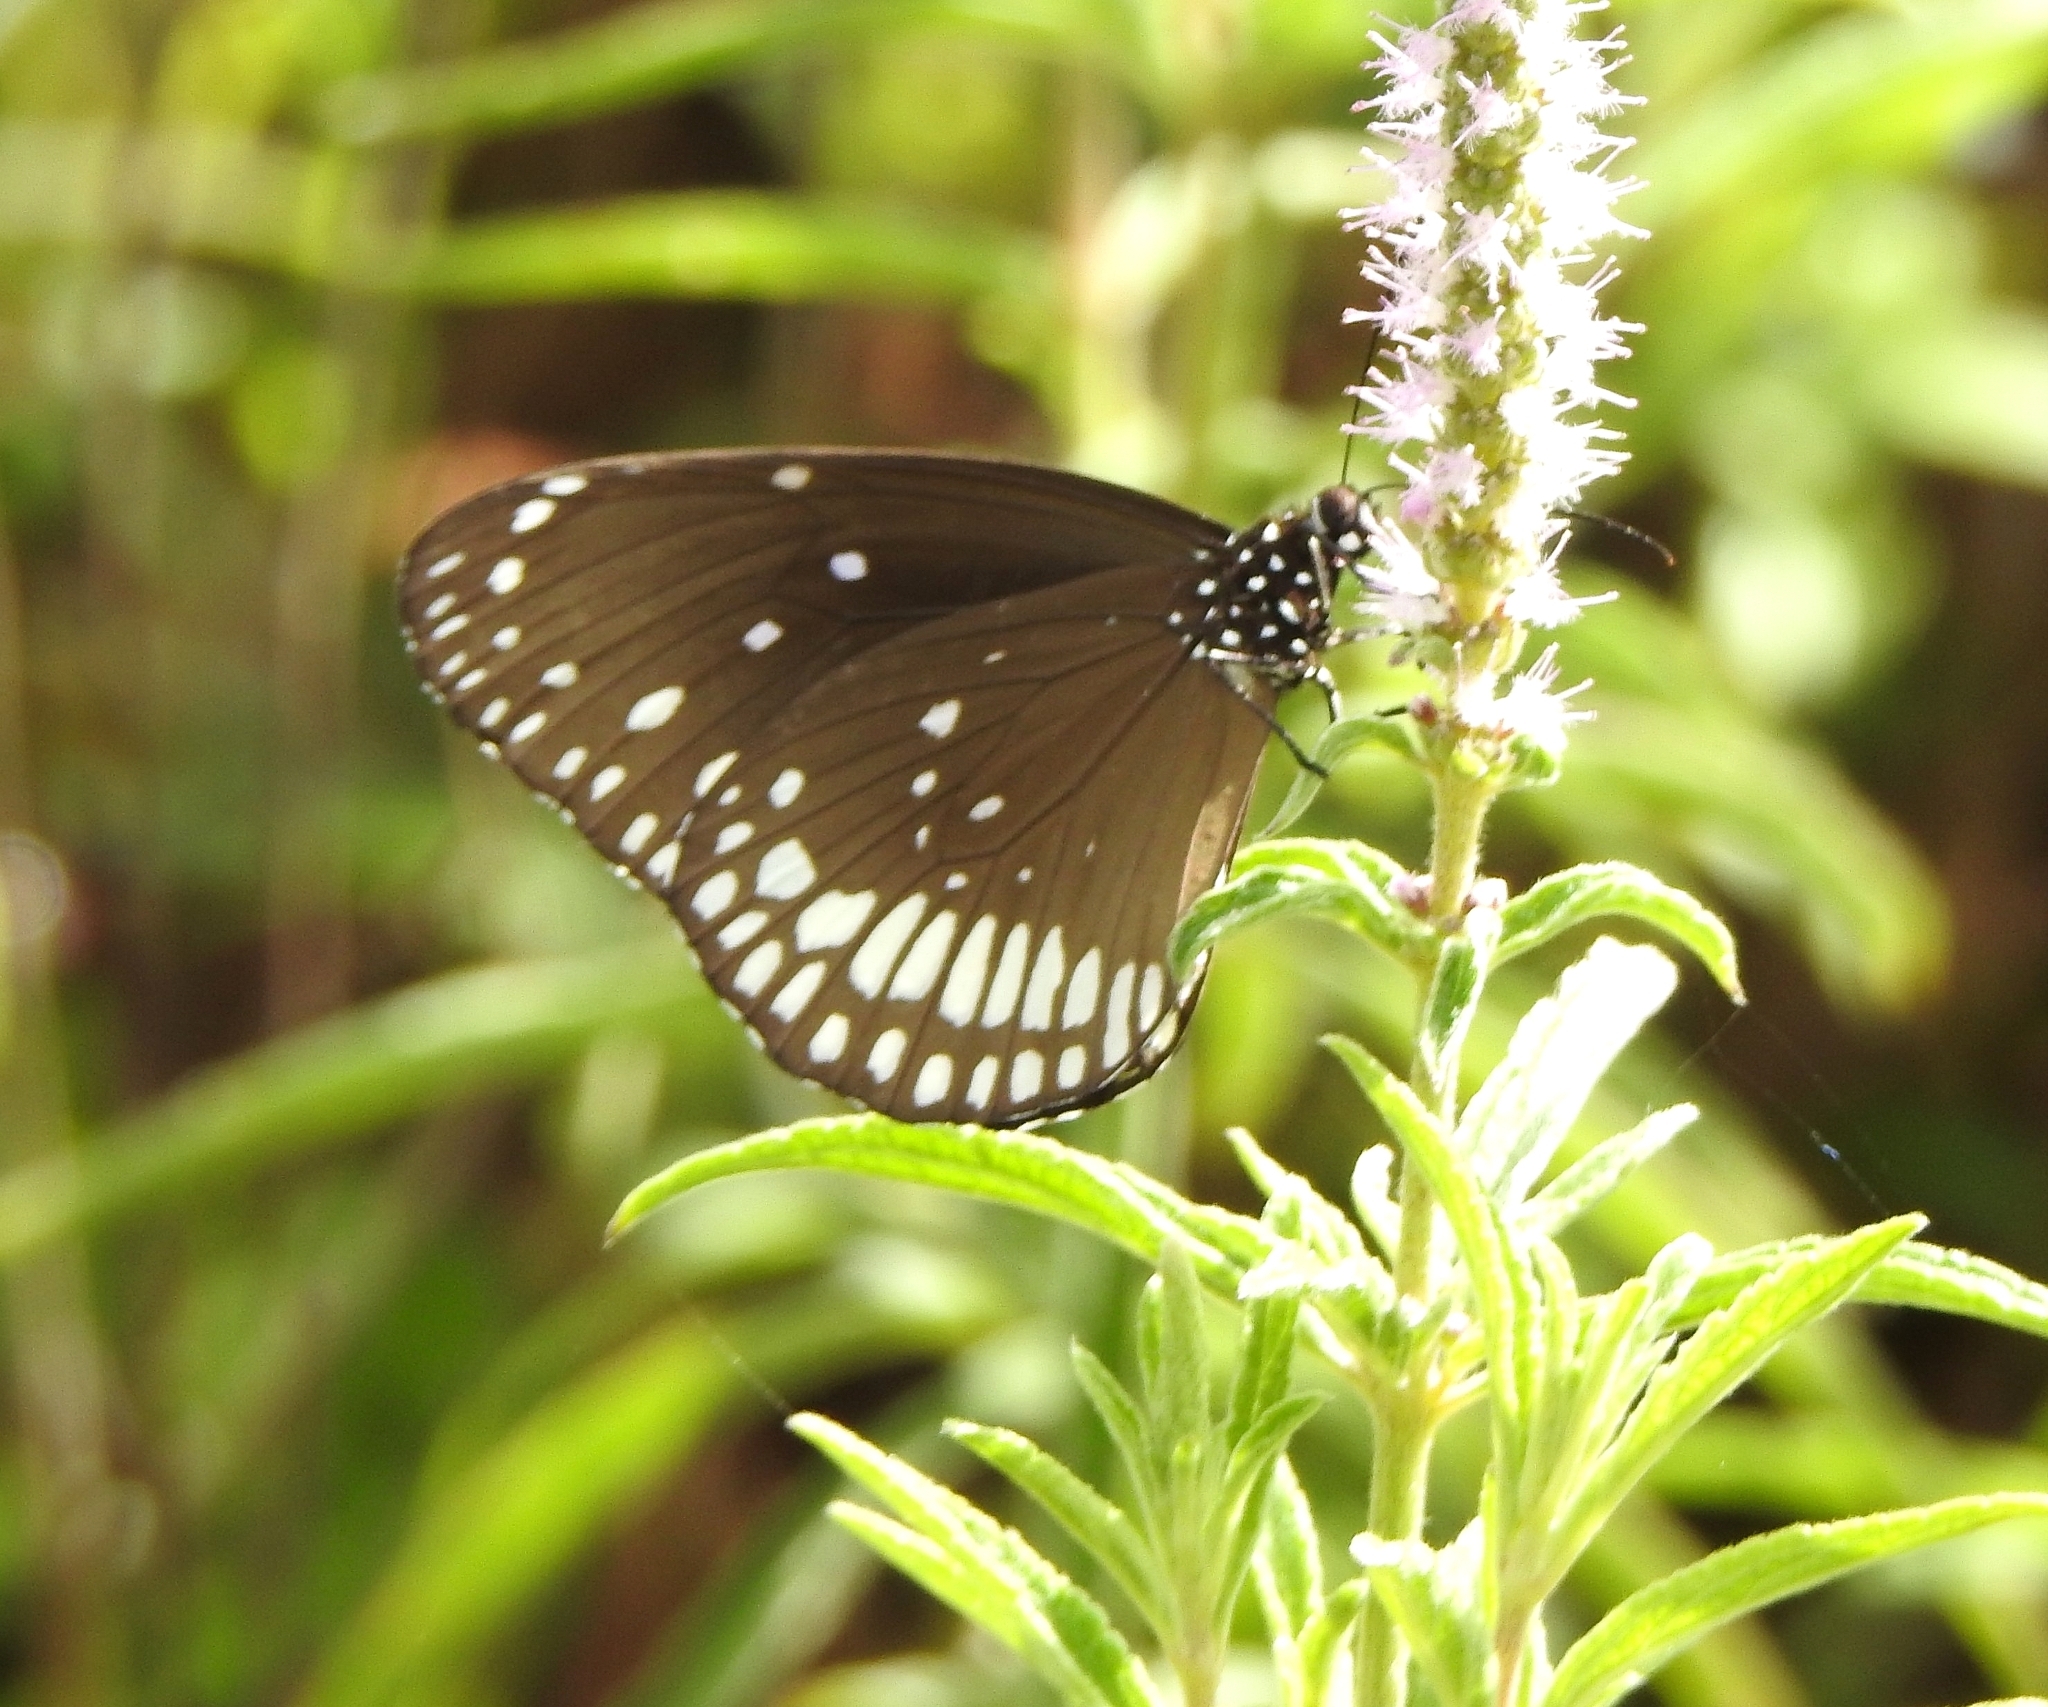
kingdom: Animalia
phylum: Arthropoda
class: Insecta
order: Lepidoptera
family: Nymphalidae
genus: Euploea
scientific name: Euploea core
